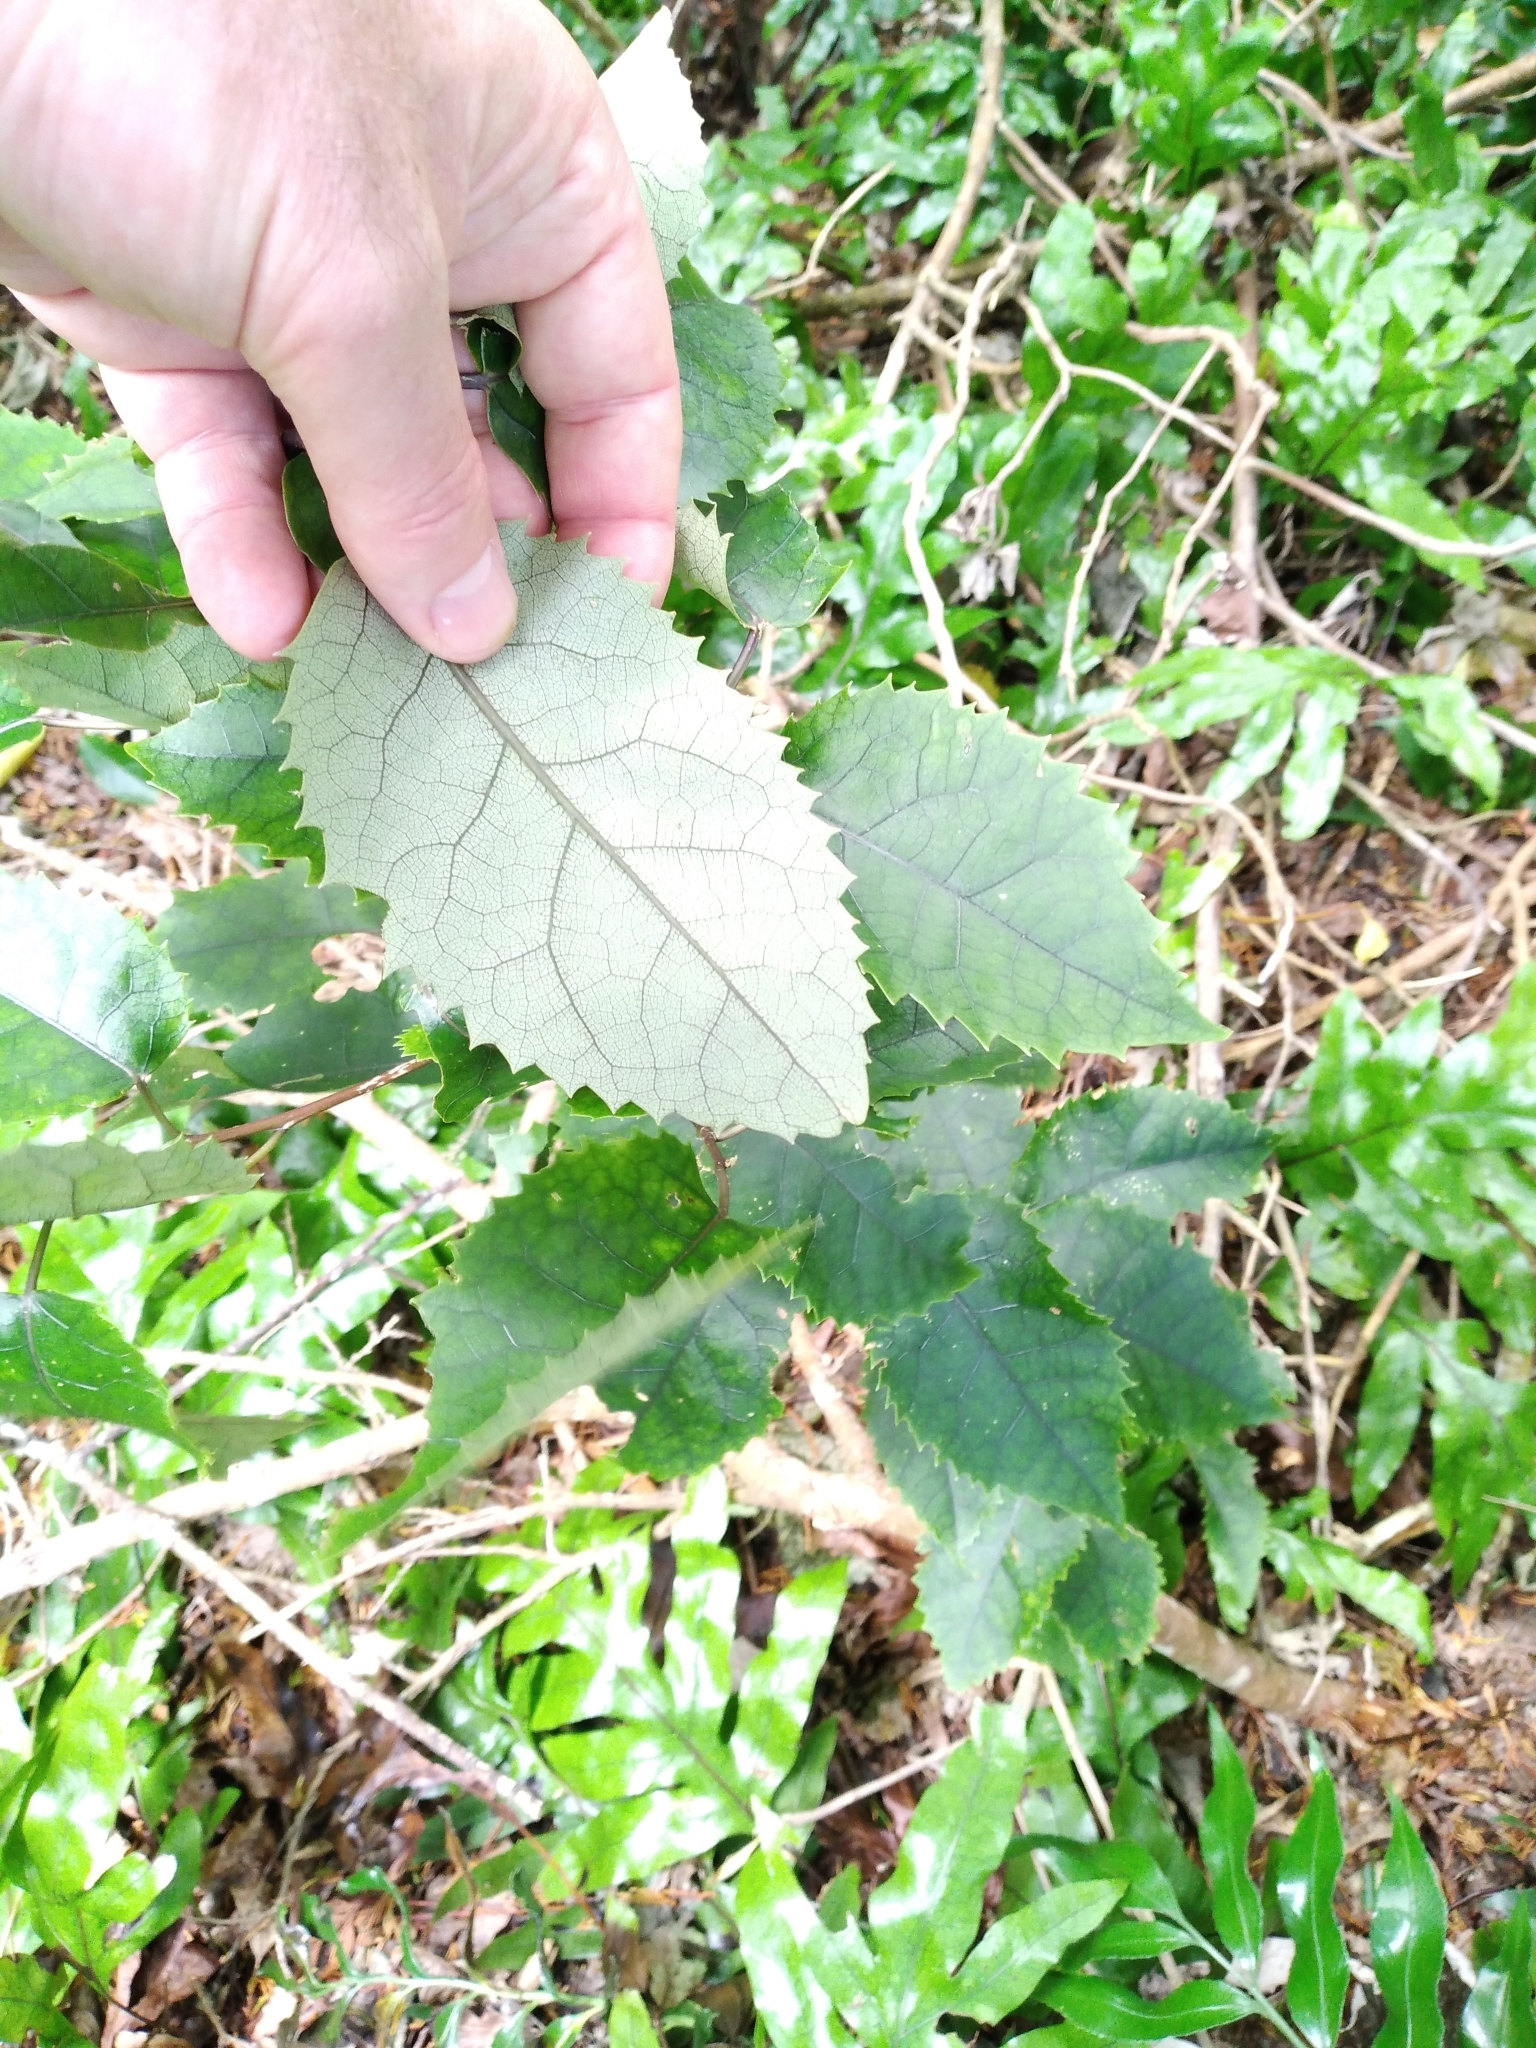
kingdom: Plantae
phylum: Tracheophyta
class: Magnoliopsida
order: Malvales
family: Malvaceae
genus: Hoheria
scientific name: Hoheria populnea
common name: Lacebark
